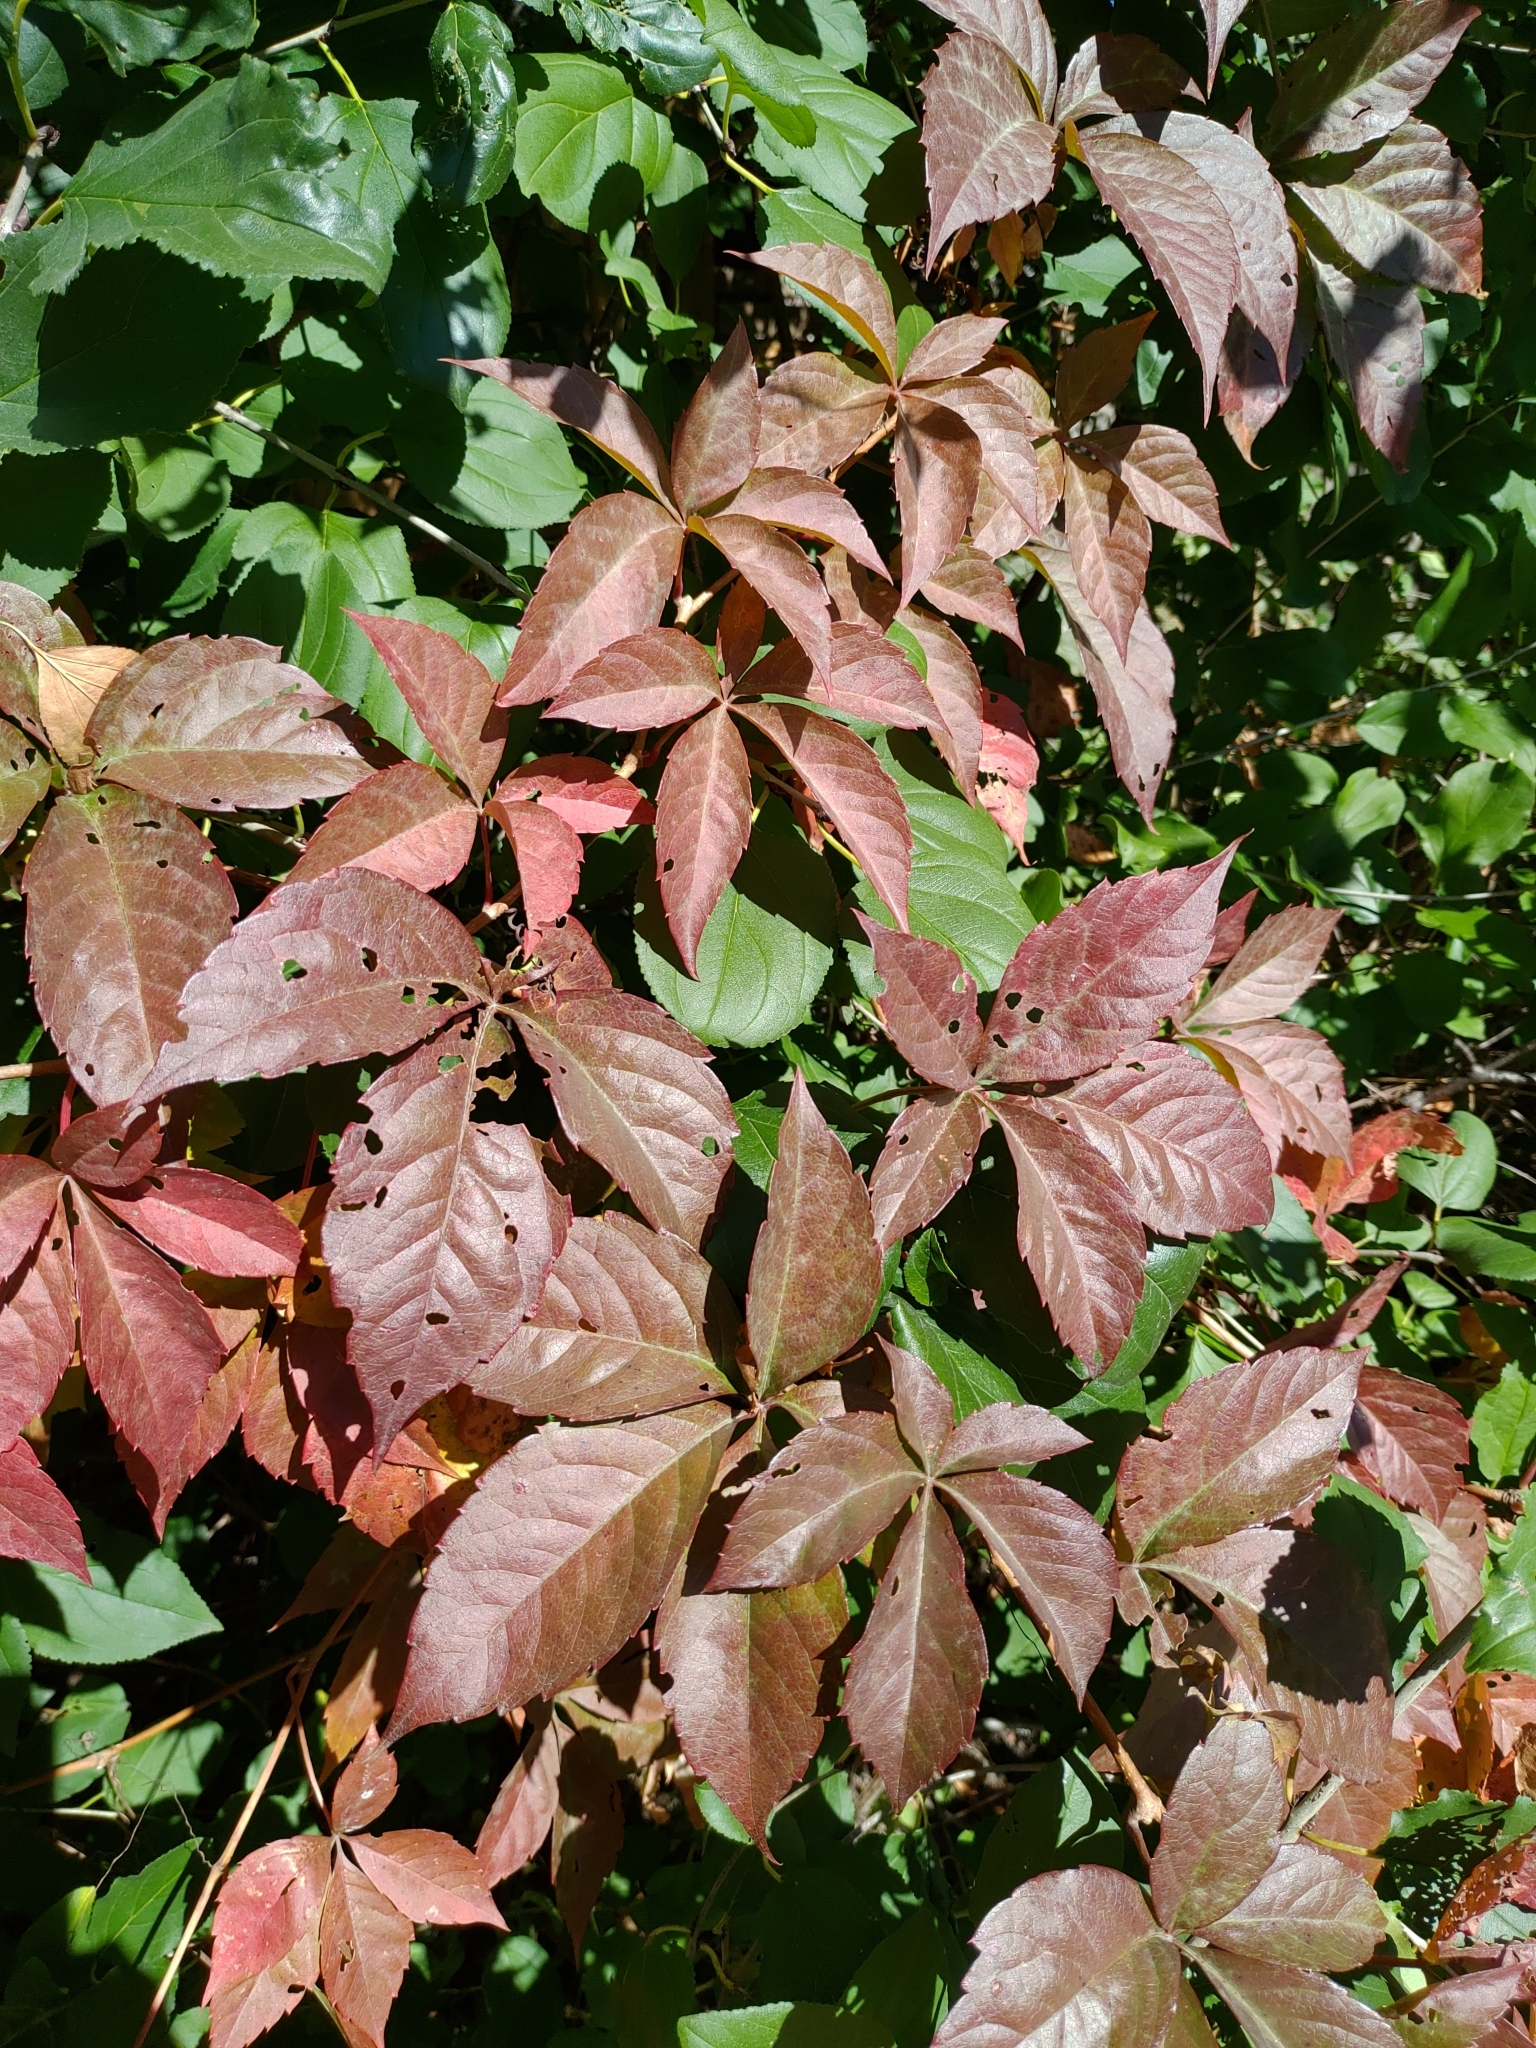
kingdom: Plantae
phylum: Tracheophyta
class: Magnoliopsida
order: Vitales
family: Vitaceae
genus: Parthenocissus
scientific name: Parthenocissus quinquefolia
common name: Virginia-creeper
